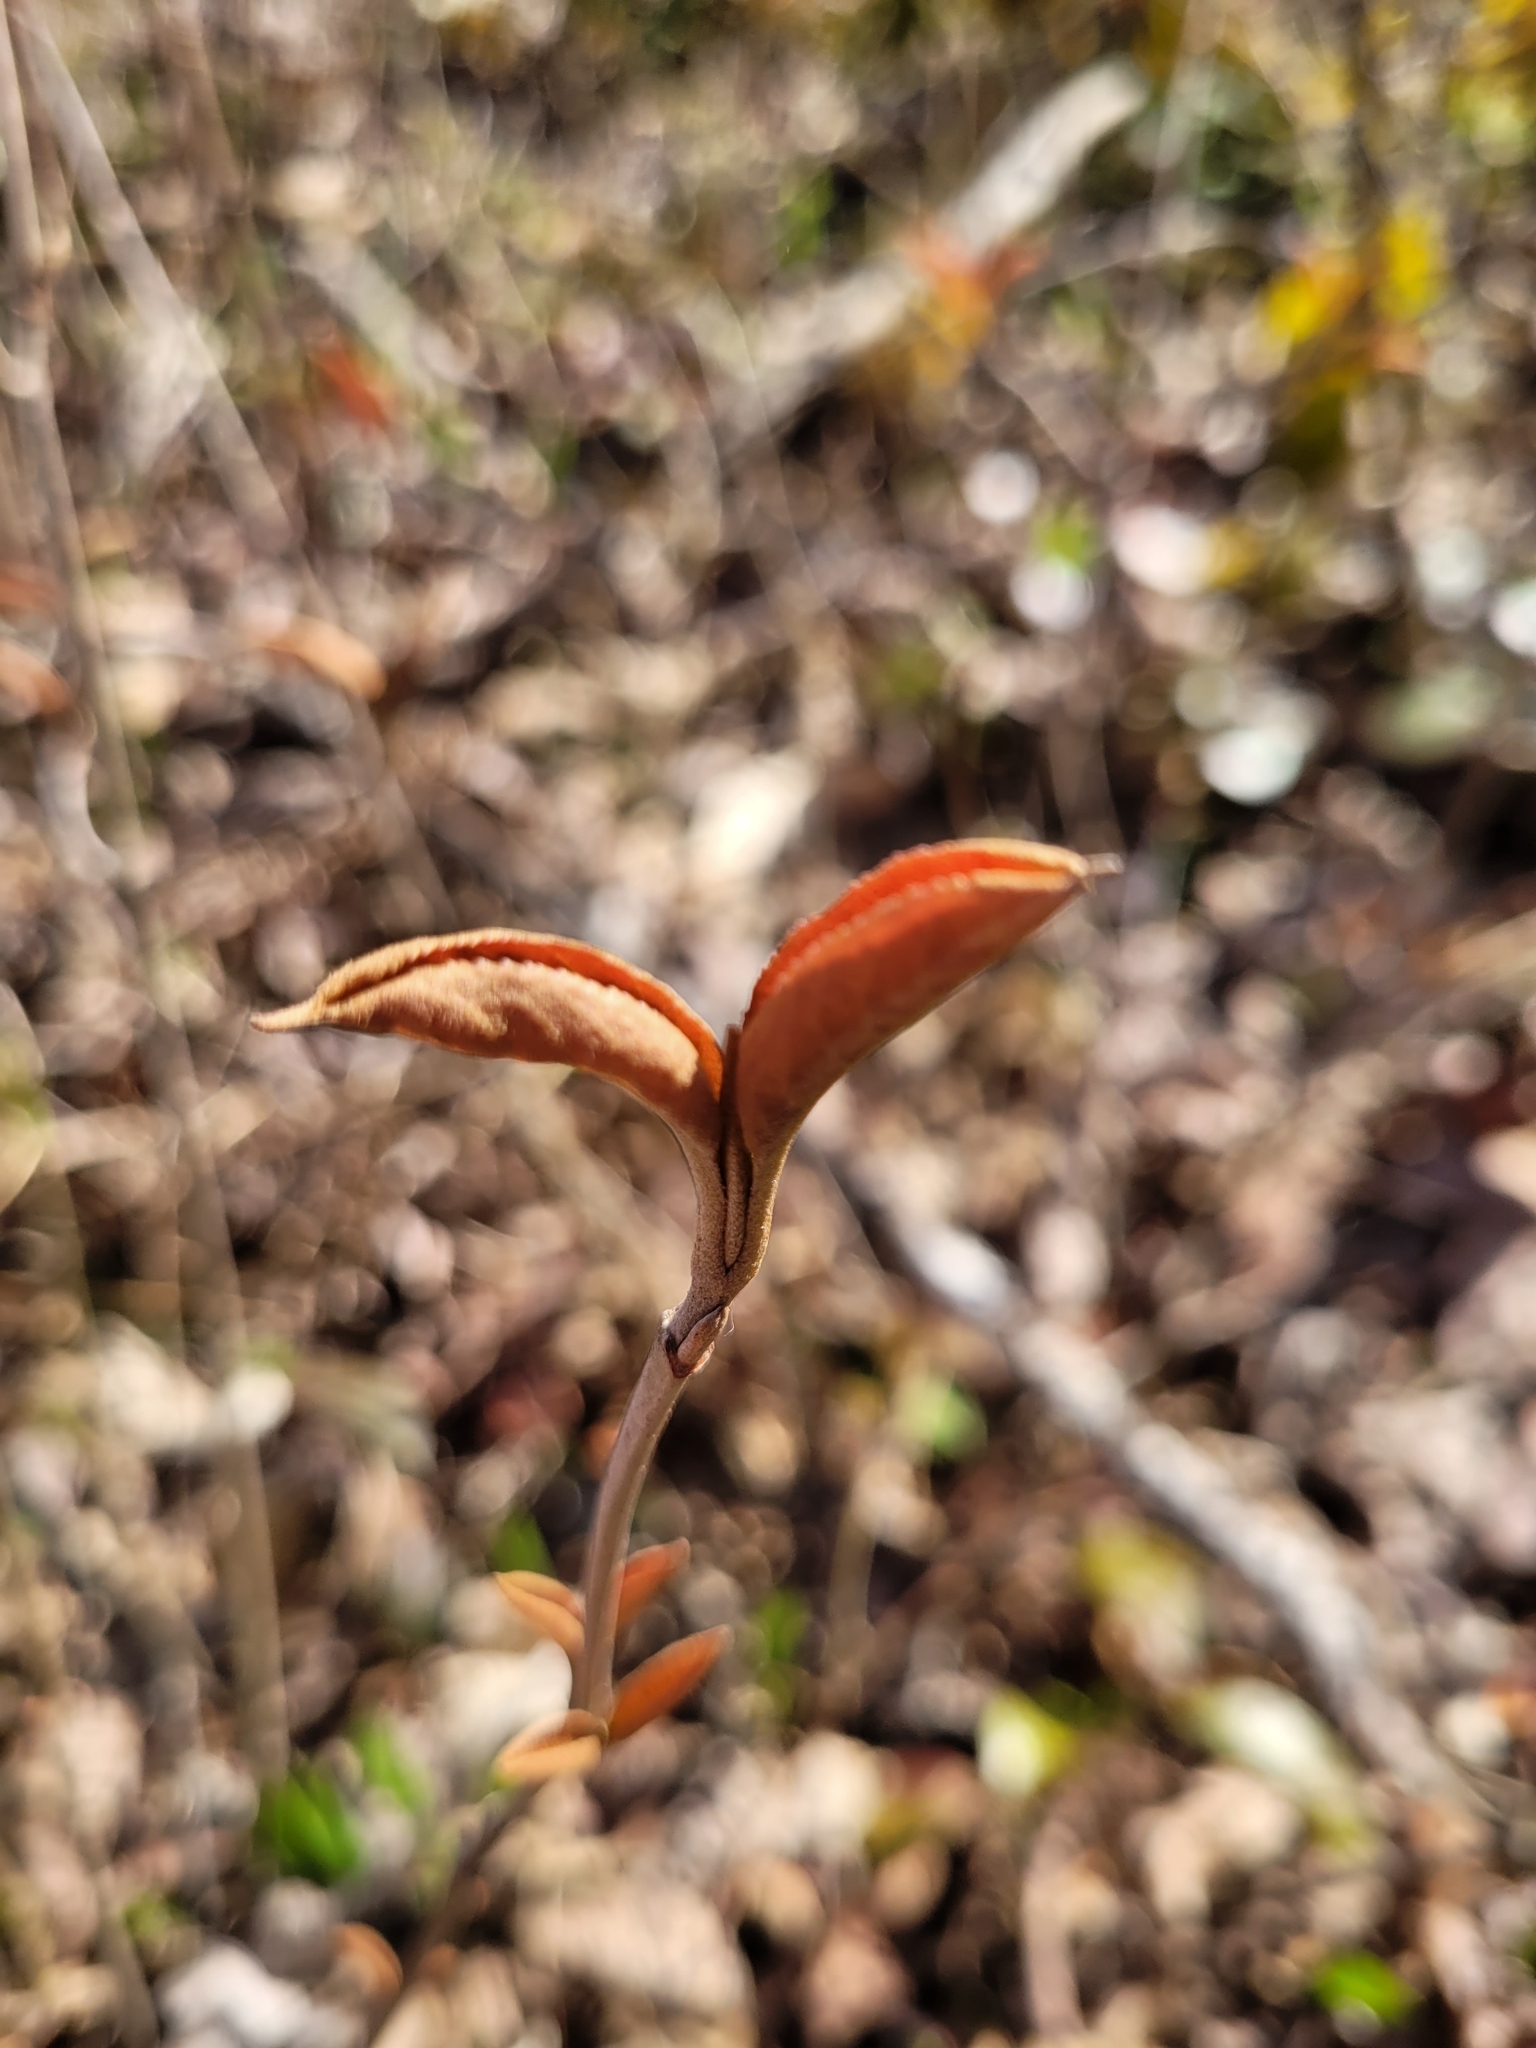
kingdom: Plantae
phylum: Tracheophyta
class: Magnoliopsida
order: Dipsacales
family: Viburnaceae
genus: Viburnum
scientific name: Viburnum cassinoides
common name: Swamp haw
